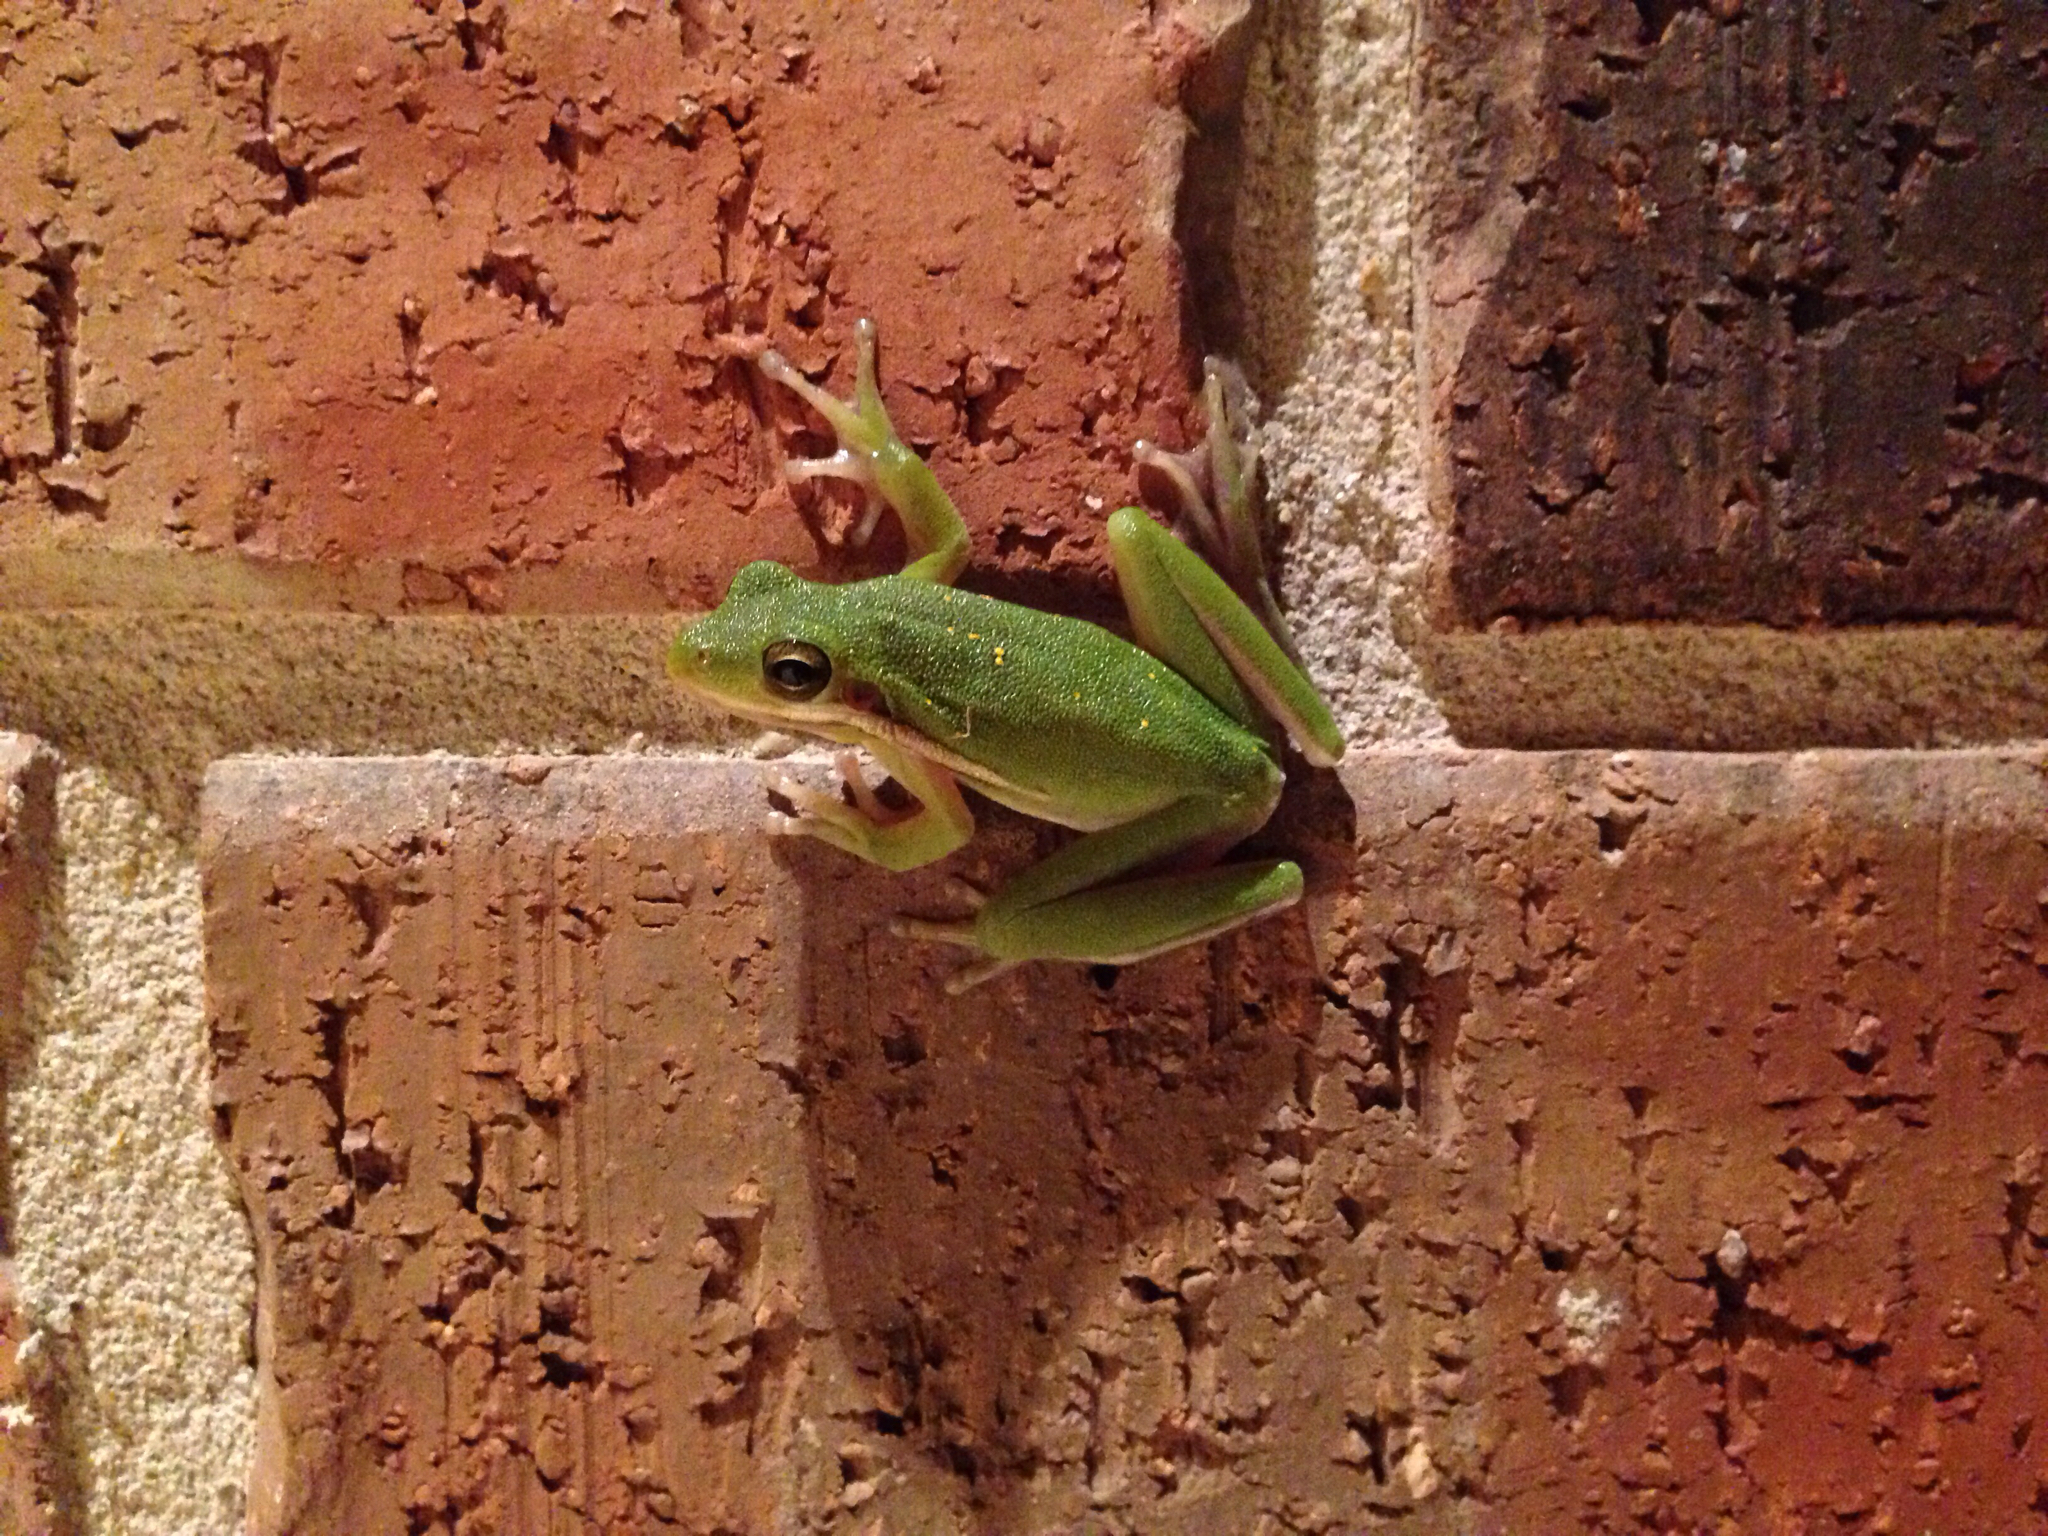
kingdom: Animalia
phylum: Chordata
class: Amphibia
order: Anura
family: Hylidae
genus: Dryophytes
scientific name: Dryophytes cinereus
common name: Green treefrog
